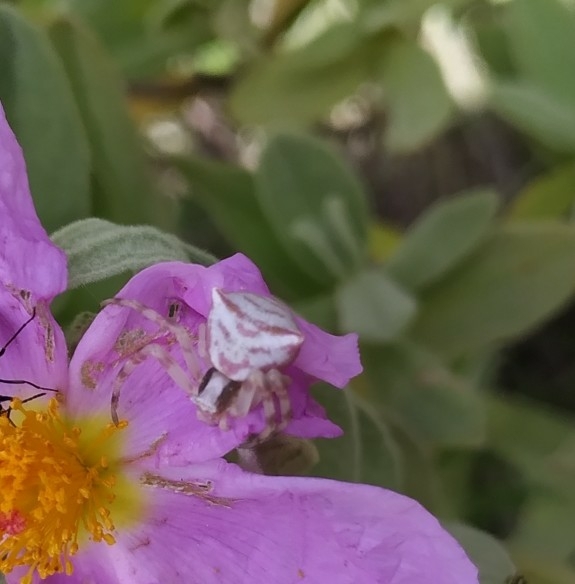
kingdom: Animalia
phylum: Arthropoda
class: Arachnida
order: Araneae
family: Thomisidae
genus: Thomisus
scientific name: Thomisus onustus
